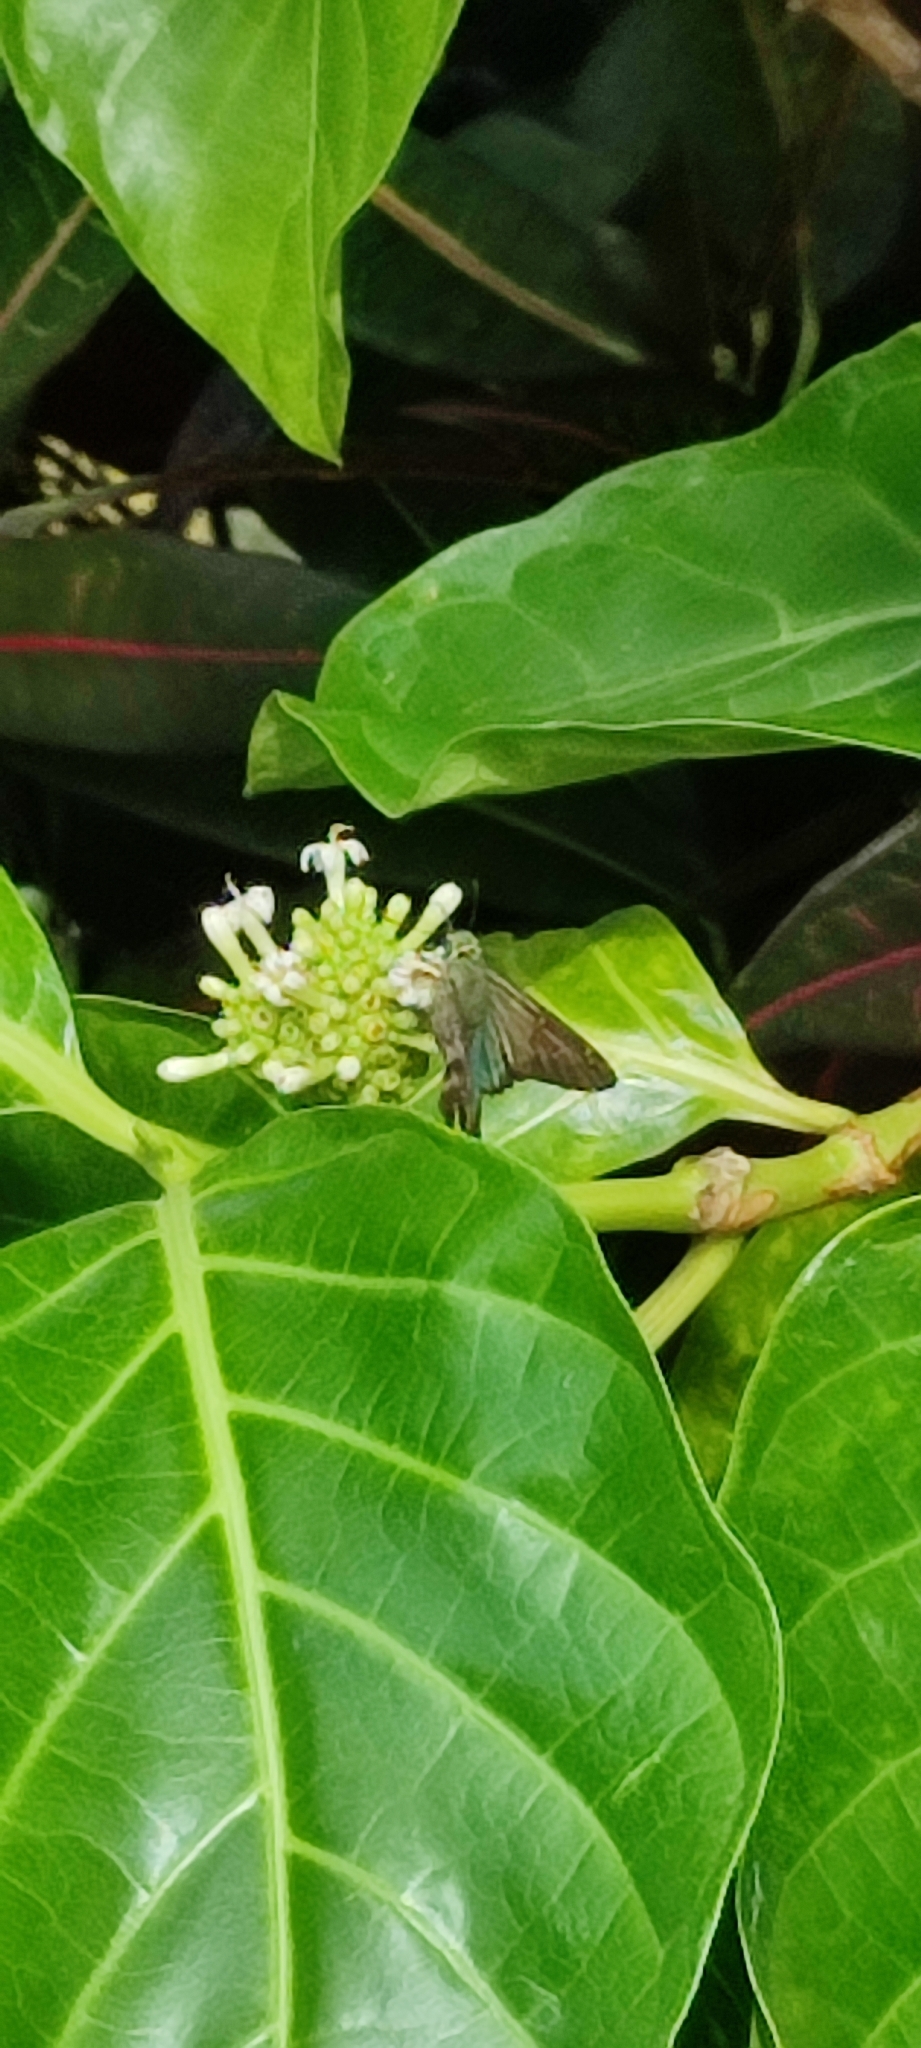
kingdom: Animalia
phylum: Arthropoda
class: Insecta
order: Lepidoptera
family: Hesperiidae
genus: Urbanus
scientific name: Urbanus proteus
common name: Long-tailed skipper
